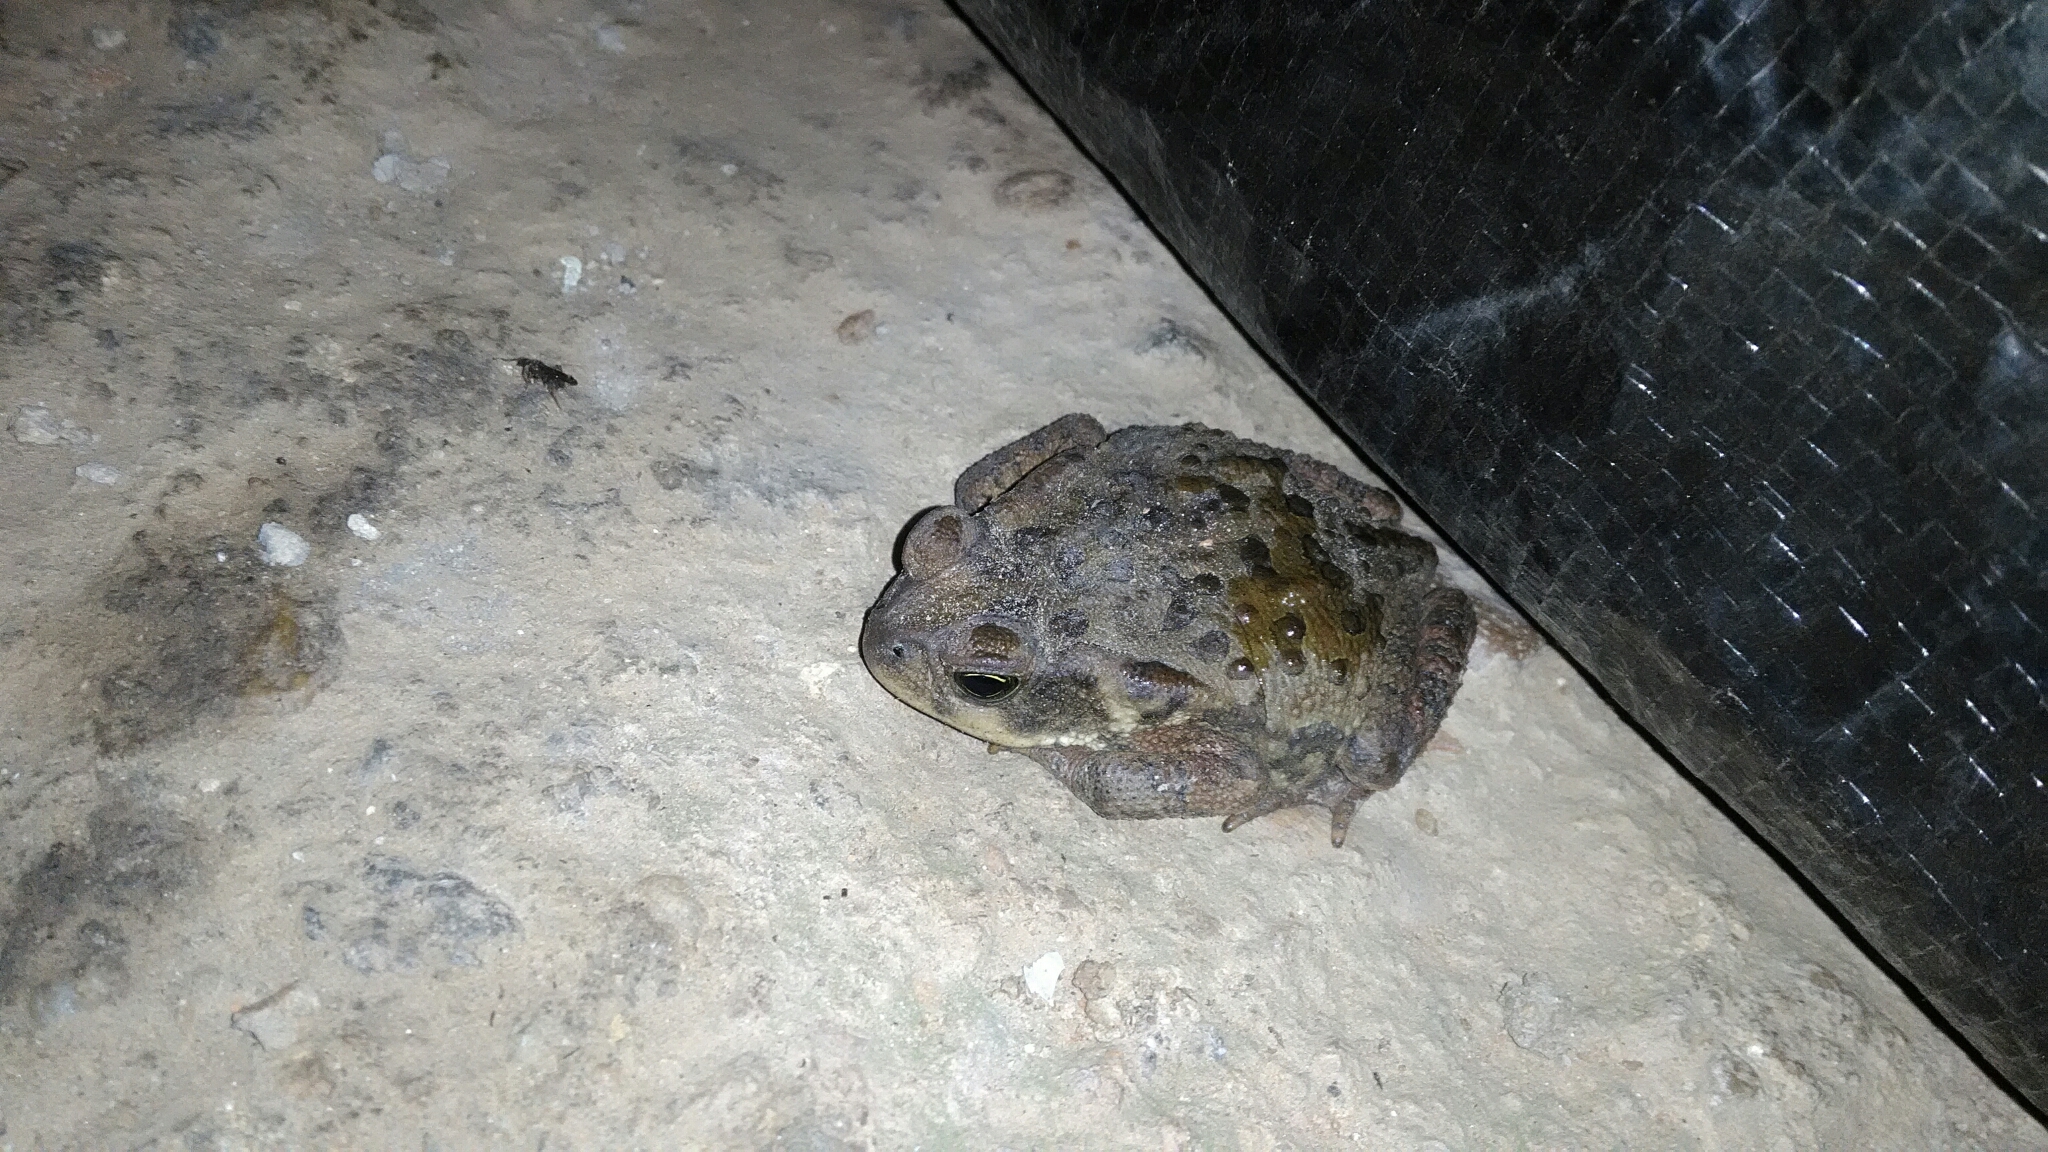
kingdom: Animalia
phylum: Chordata
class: Amphibia
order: Anura
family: Bufonidae
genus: Rhinella
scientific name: Rhinella ornata
